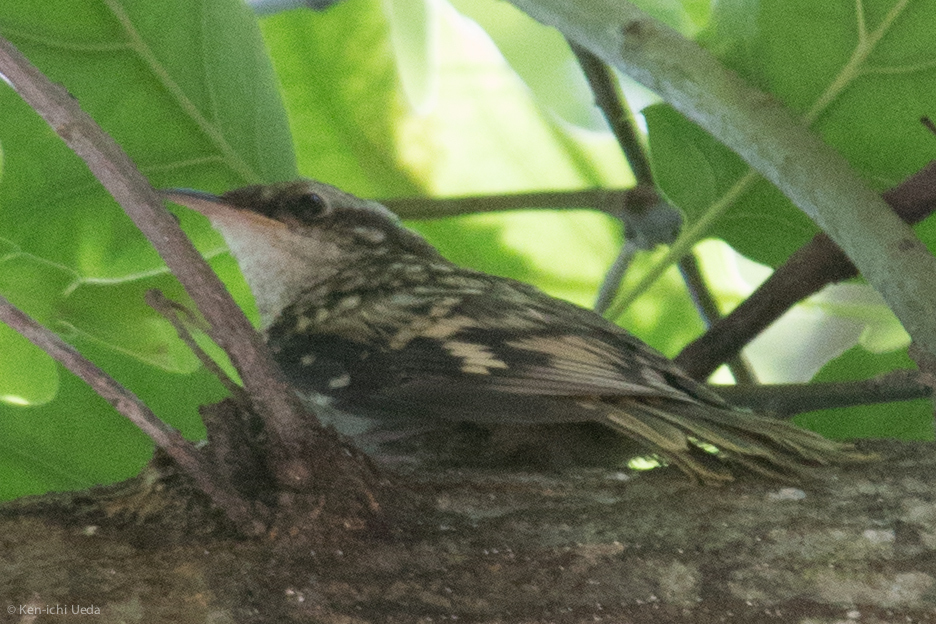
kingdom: Animalia
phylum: Chordata
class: Aves
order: Passeriformes
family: Certhiidae
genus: Certhia
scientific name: Certhia americana
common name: Brown creeper
